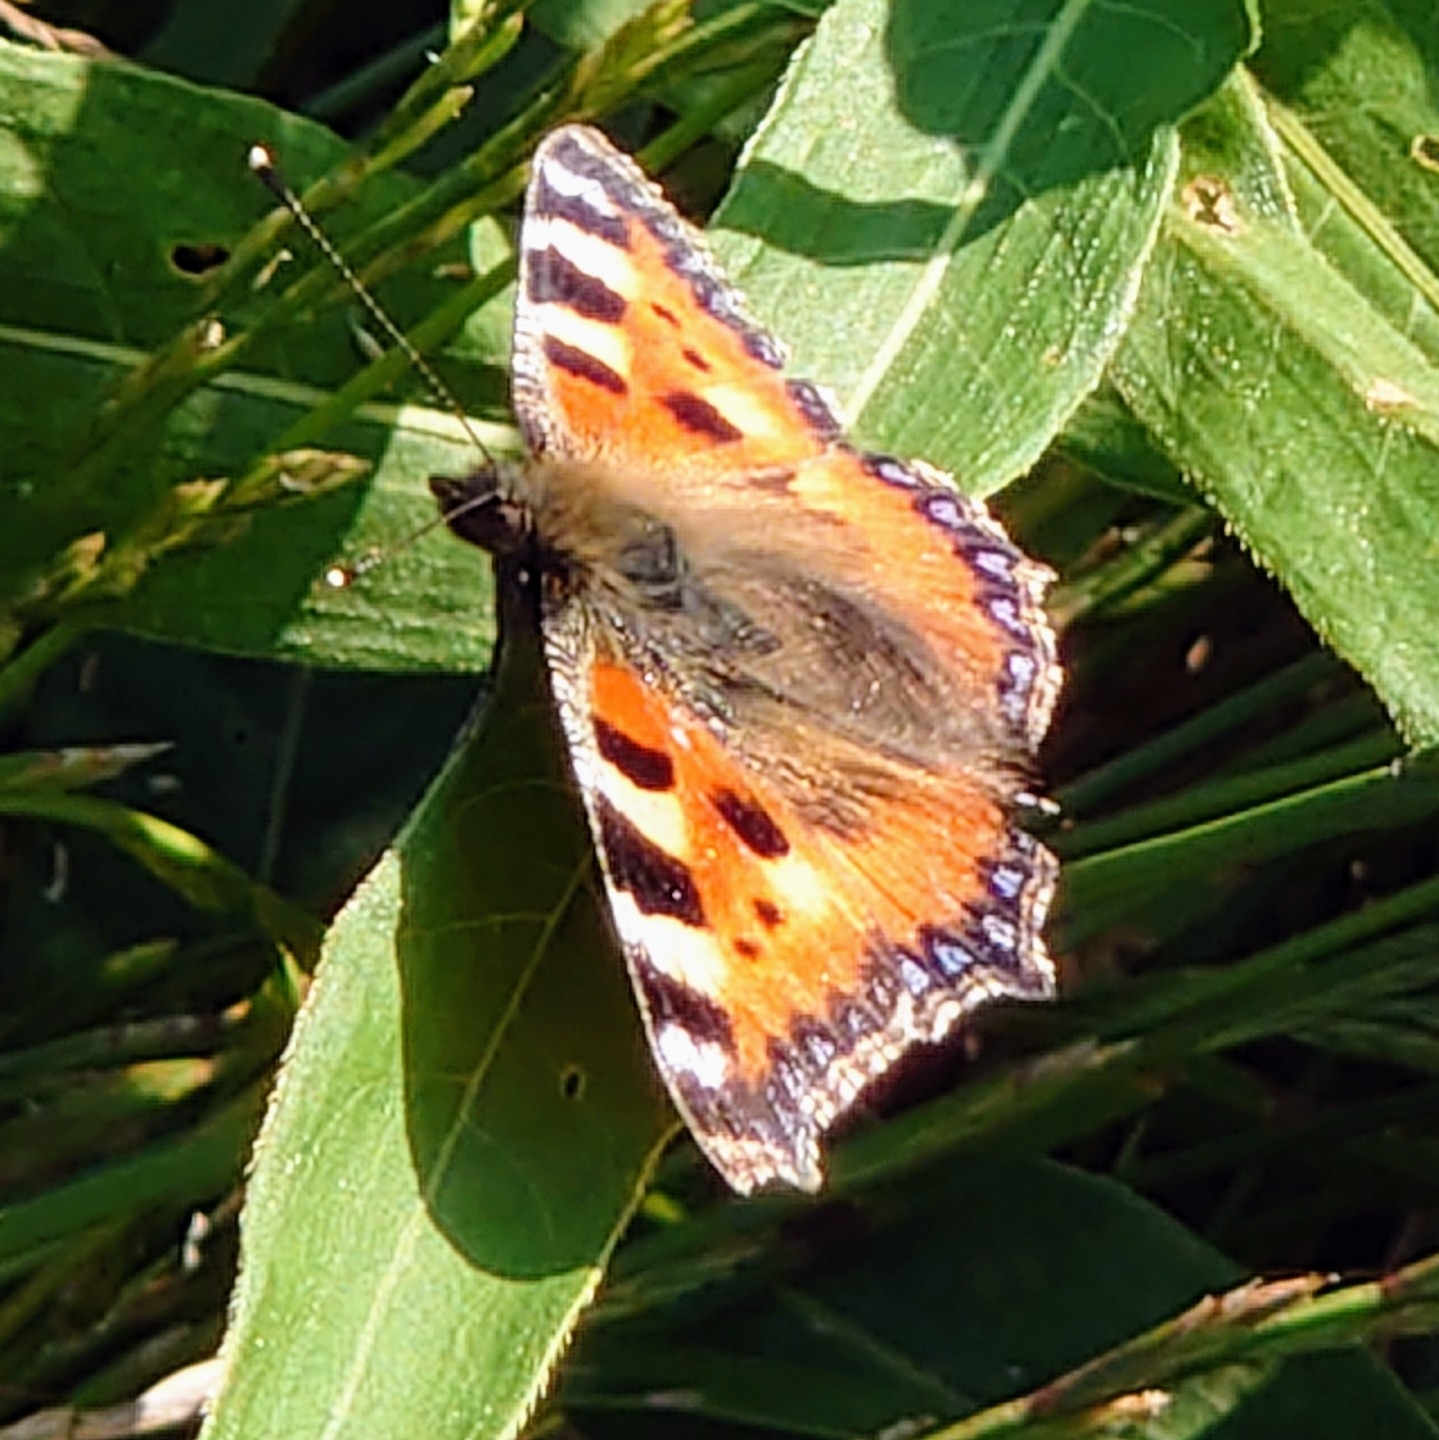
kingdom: Animalia
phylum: Arthropoda
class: Insecta
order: Lepidoptera
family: Nymphalidae
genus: Aglais
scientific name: Aglais urticae
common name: Small tortoiseshell
